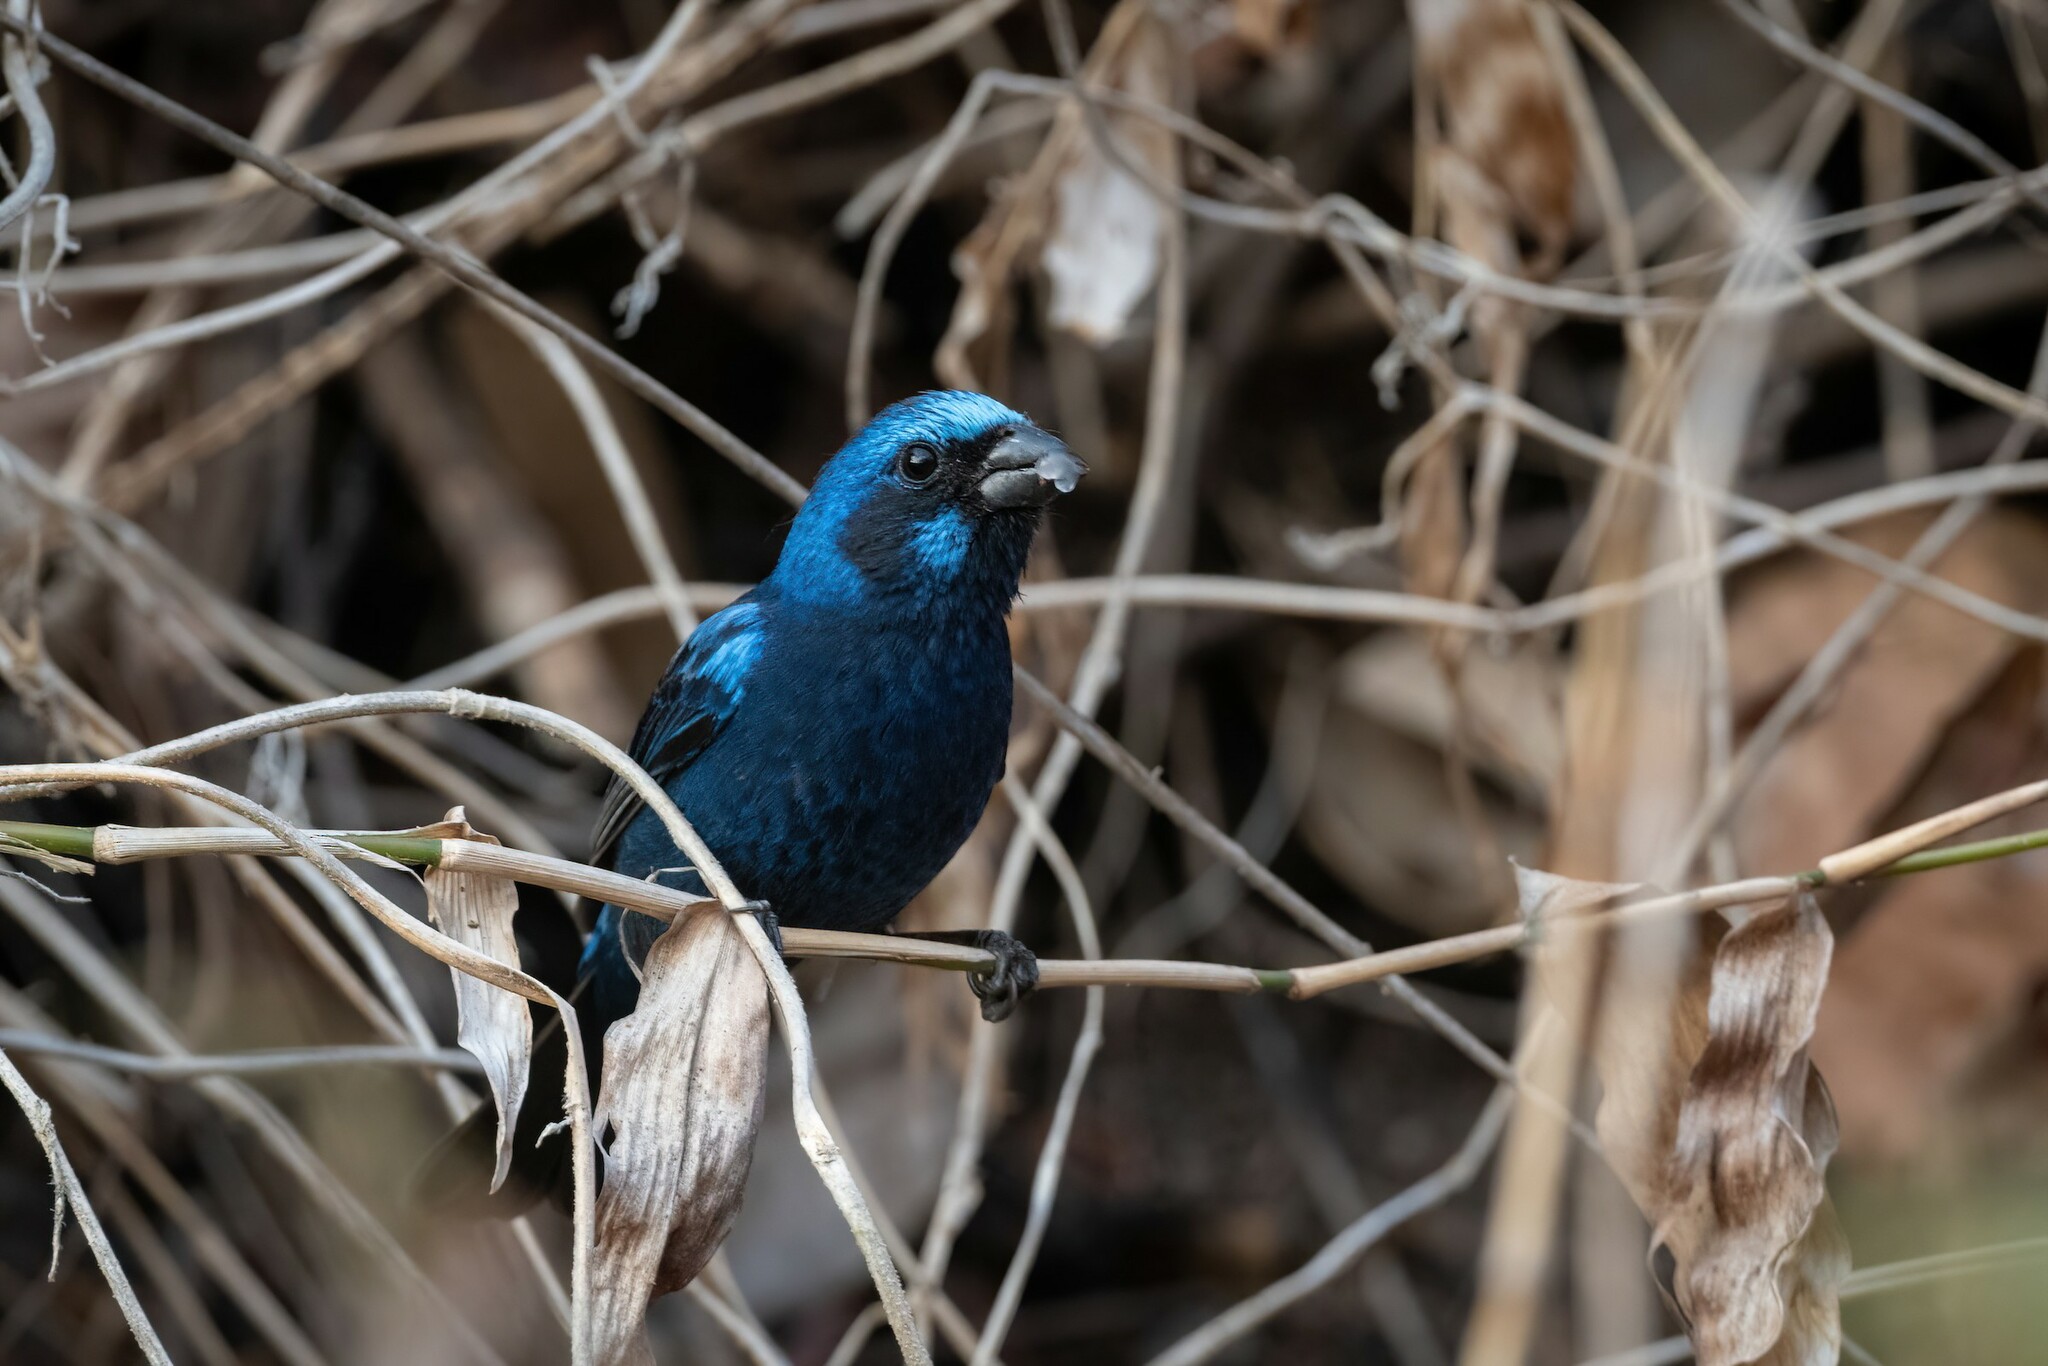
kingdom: Animalia
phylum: Chordata
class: Aves
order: Passeriformes
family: Cardinalidae
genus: Cyanocompsa
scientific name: Cyanocompsa parellina
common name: Blue bunting
